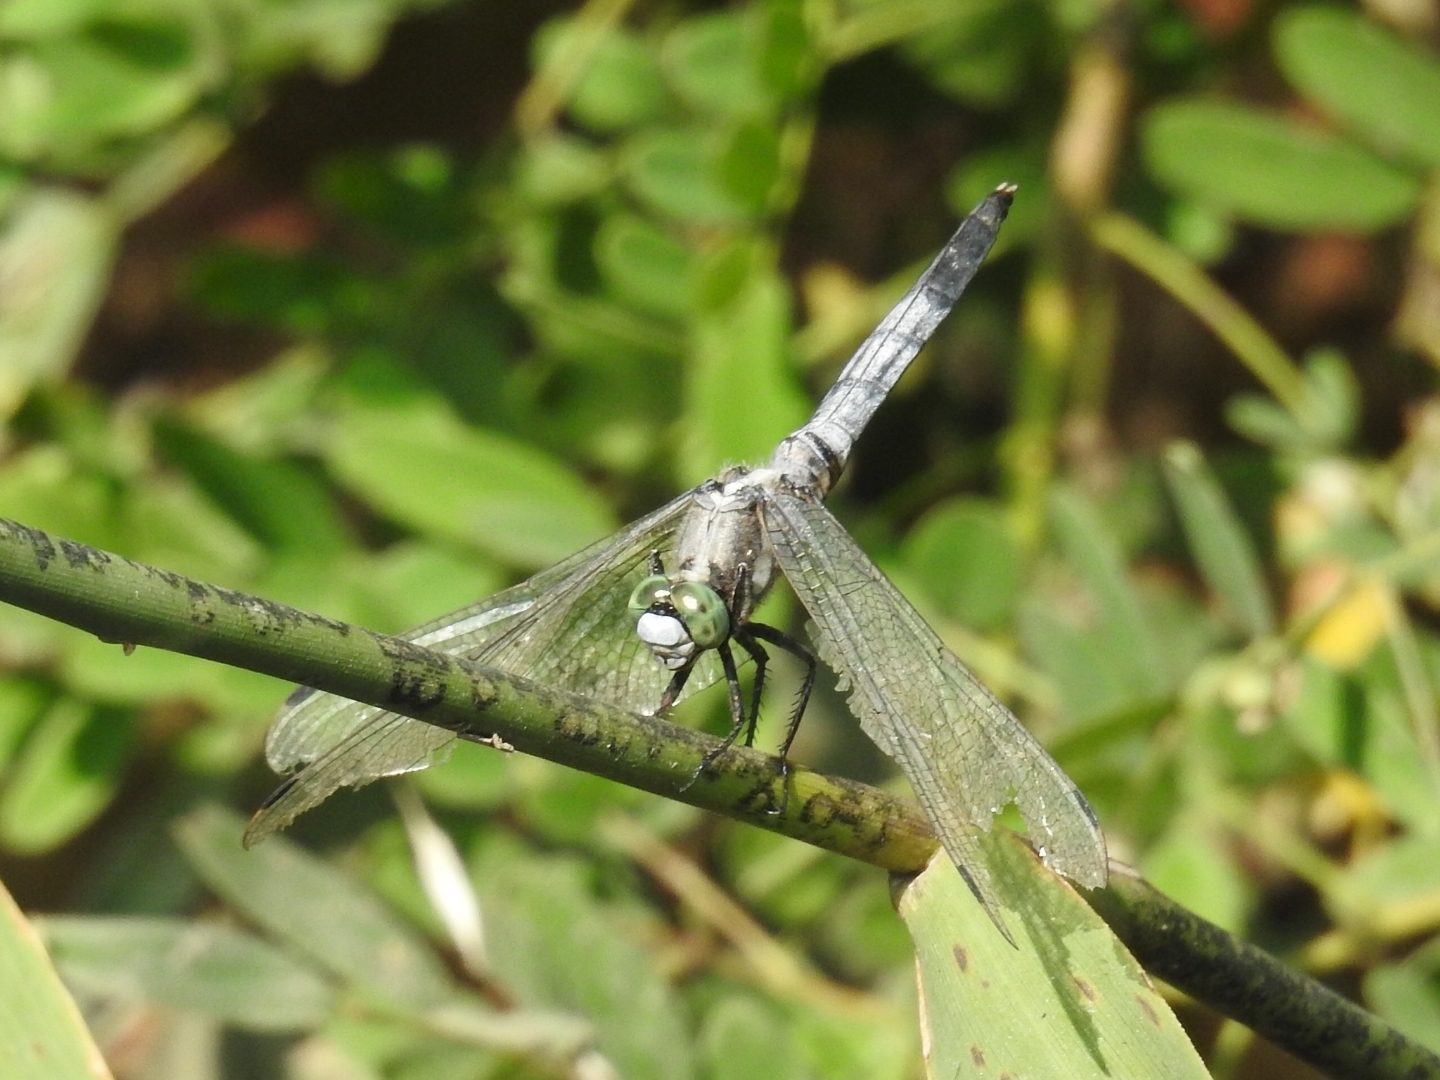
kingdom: Animalia
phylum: Arthropoda
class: Insecta
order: Odonata
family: Libellulidae
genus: Orthetrum
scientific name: Orthetrum albistylum
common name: White-tailed skimmer
